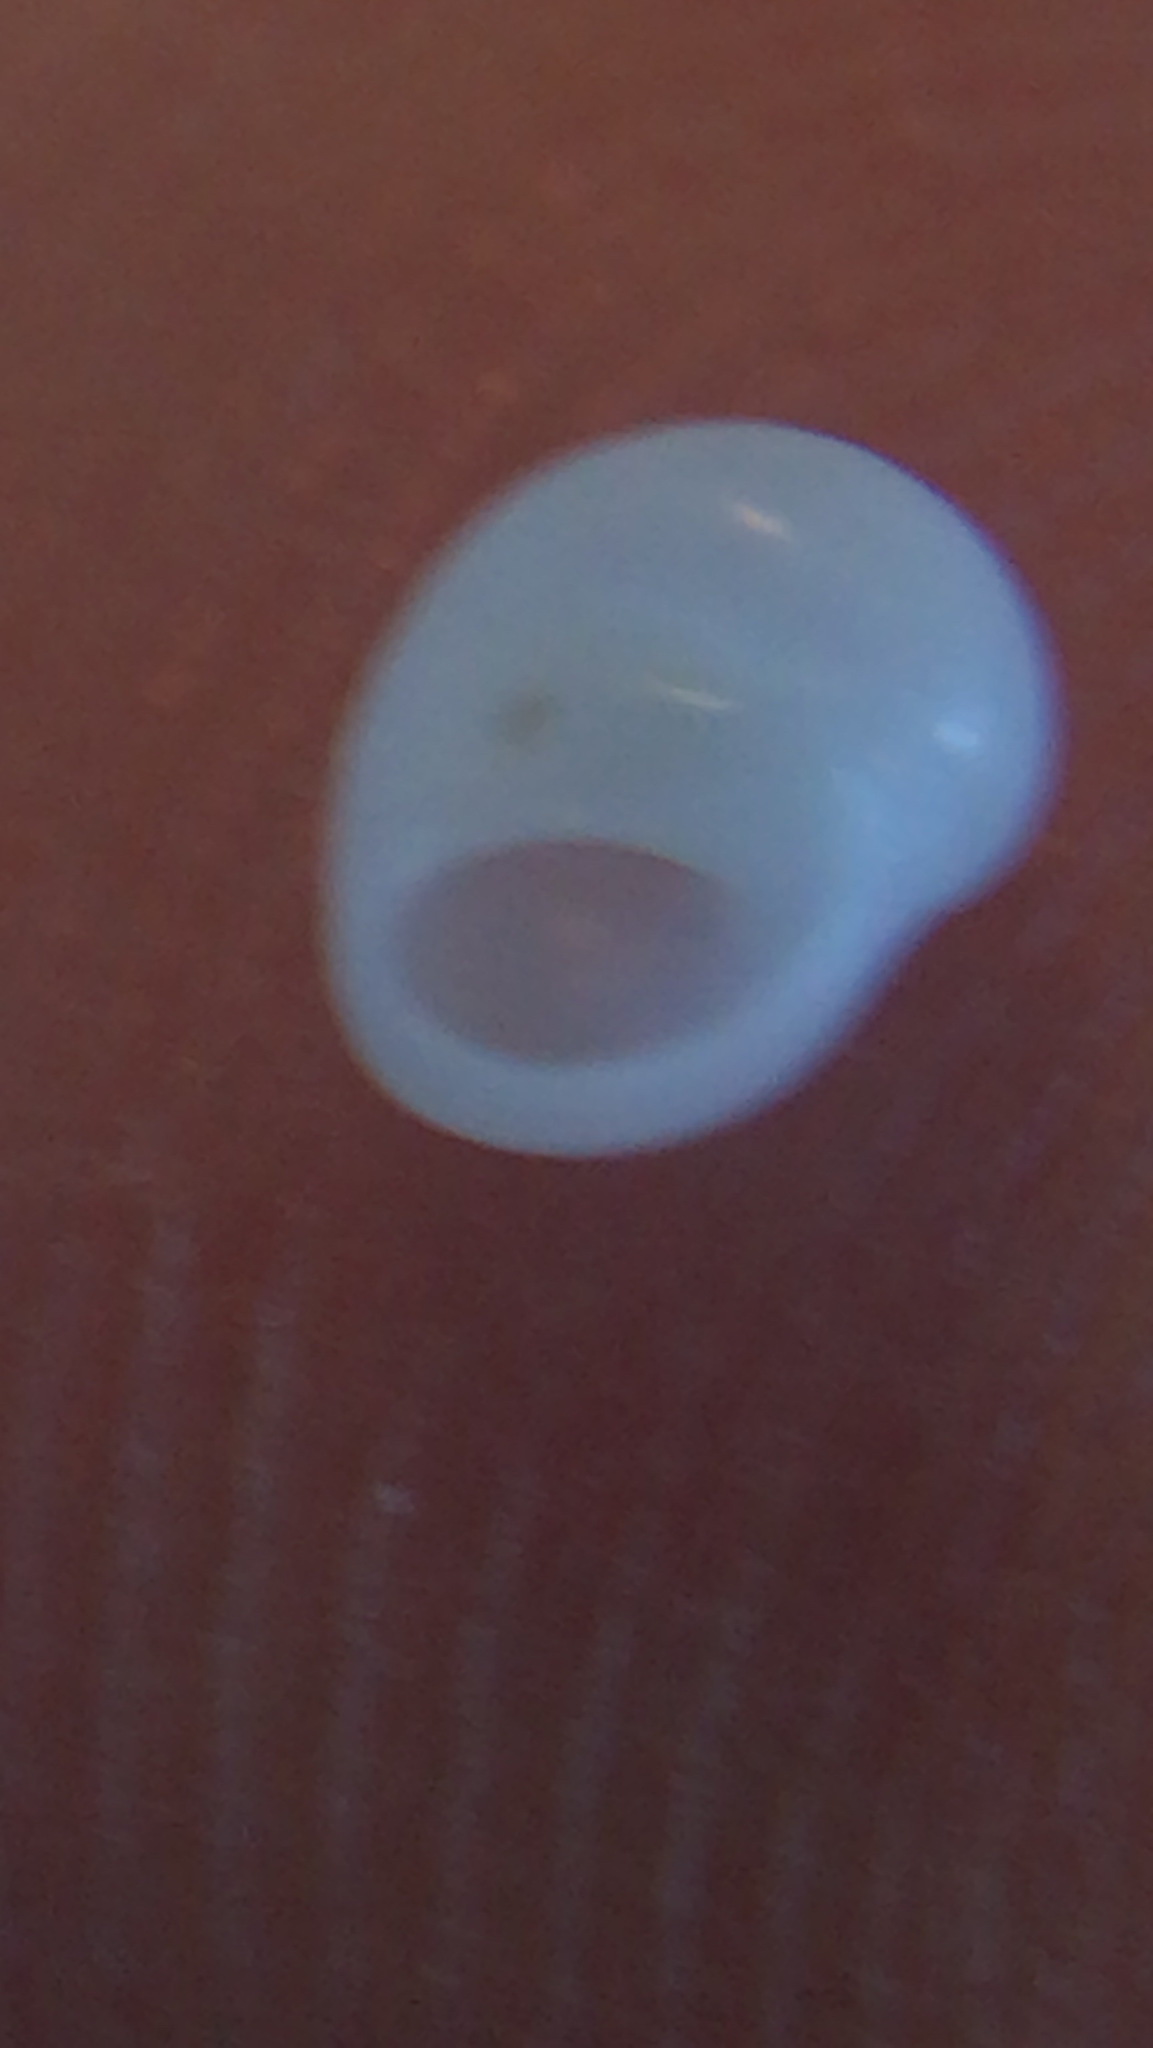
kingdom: Animalia
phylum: Mollusca
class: Gastropoda
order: Littorinimorpha
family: Naticidae
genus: Tectonatica
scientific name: Tectonatica pusilla
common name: Miniature moonsnail
